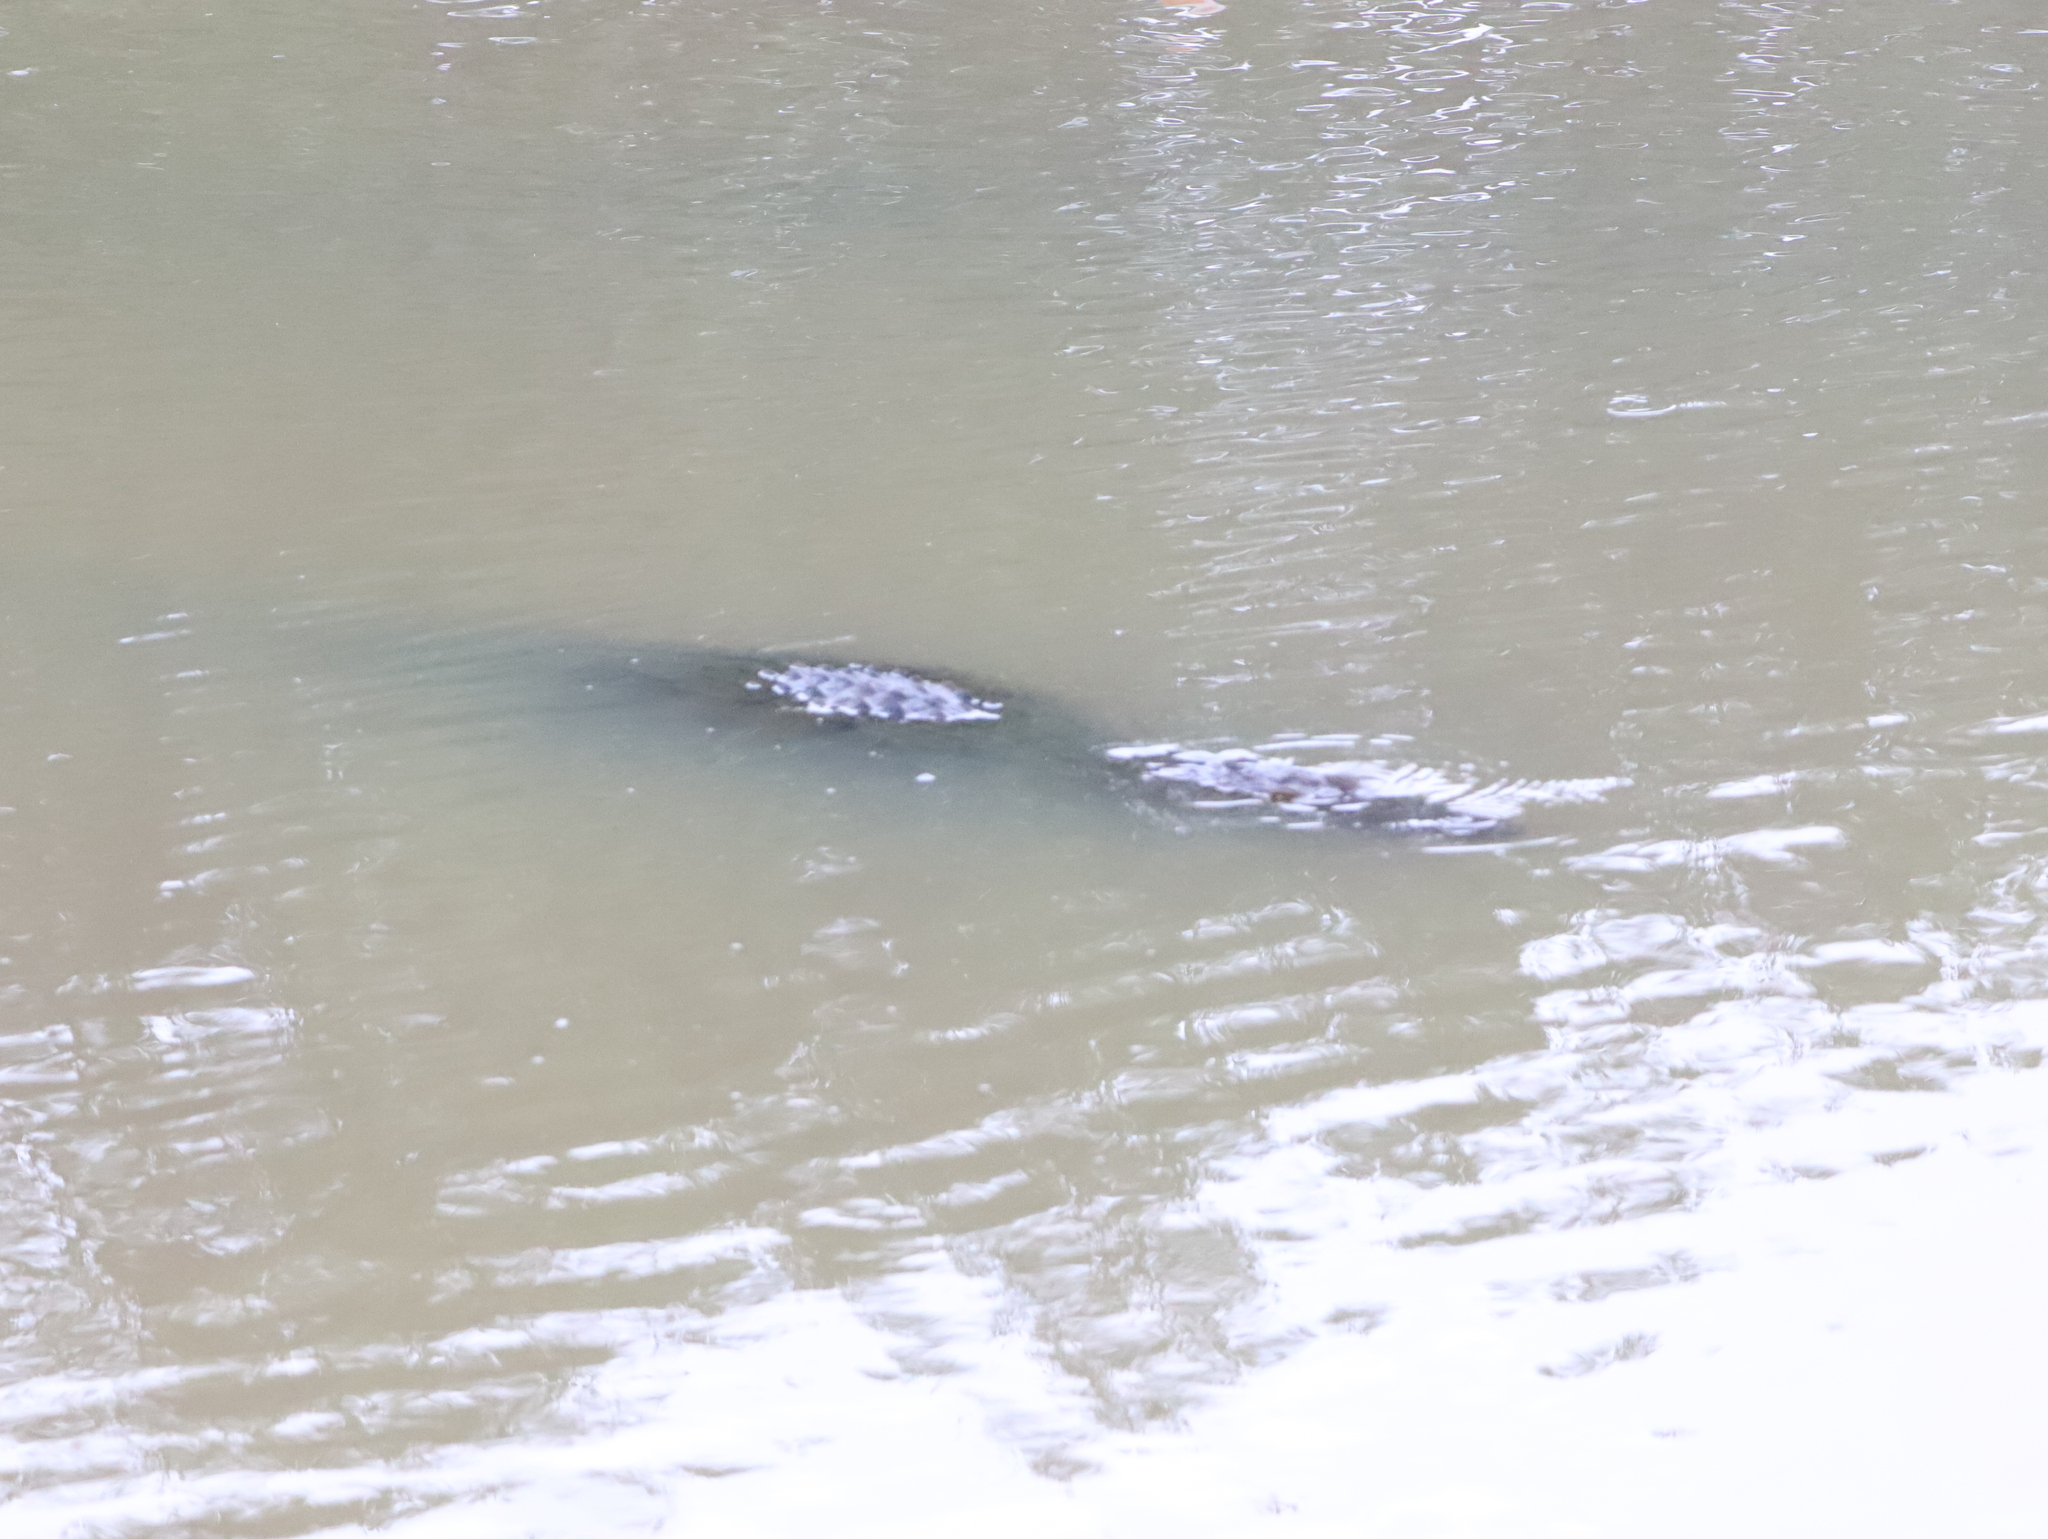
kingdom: Animalia
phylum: Chordata
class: Crocodylia
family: Crocodylidae
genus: Crocodylus
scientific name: Crocodylus palustris
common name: Mugger crocodile
